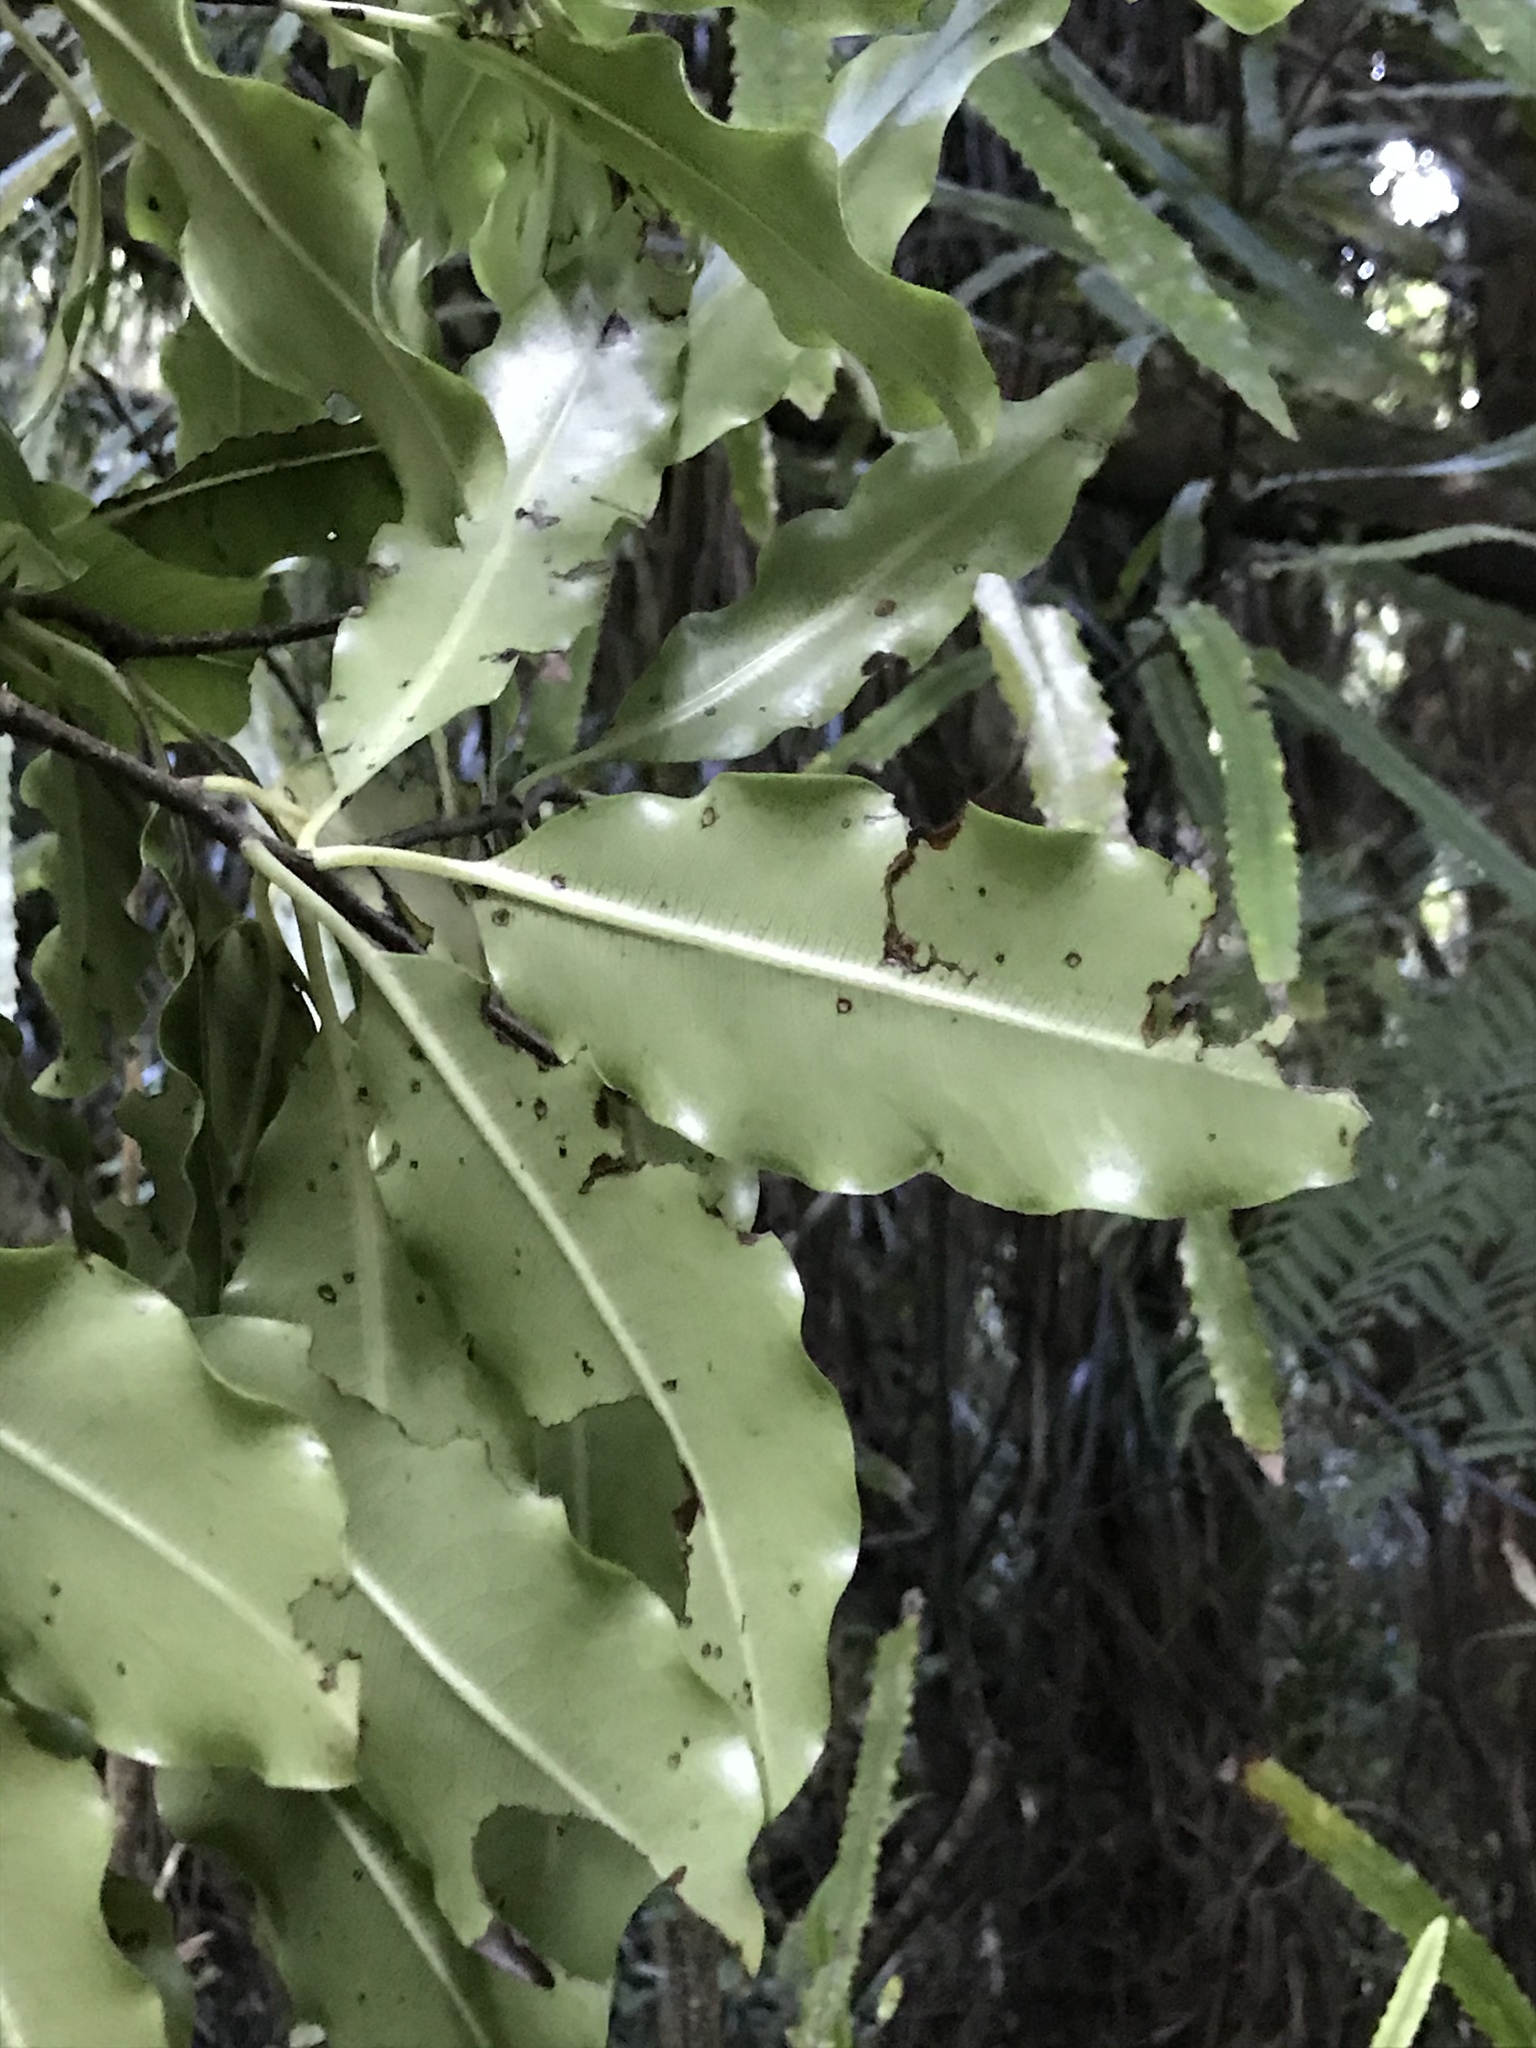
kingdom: Plantae
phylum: Tracheophyta
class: Magnoliopsida
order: Apiales
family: Pittosporaceae
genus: Pittosporum
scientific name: Pittosporum eugenioides
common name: Lemonwood
